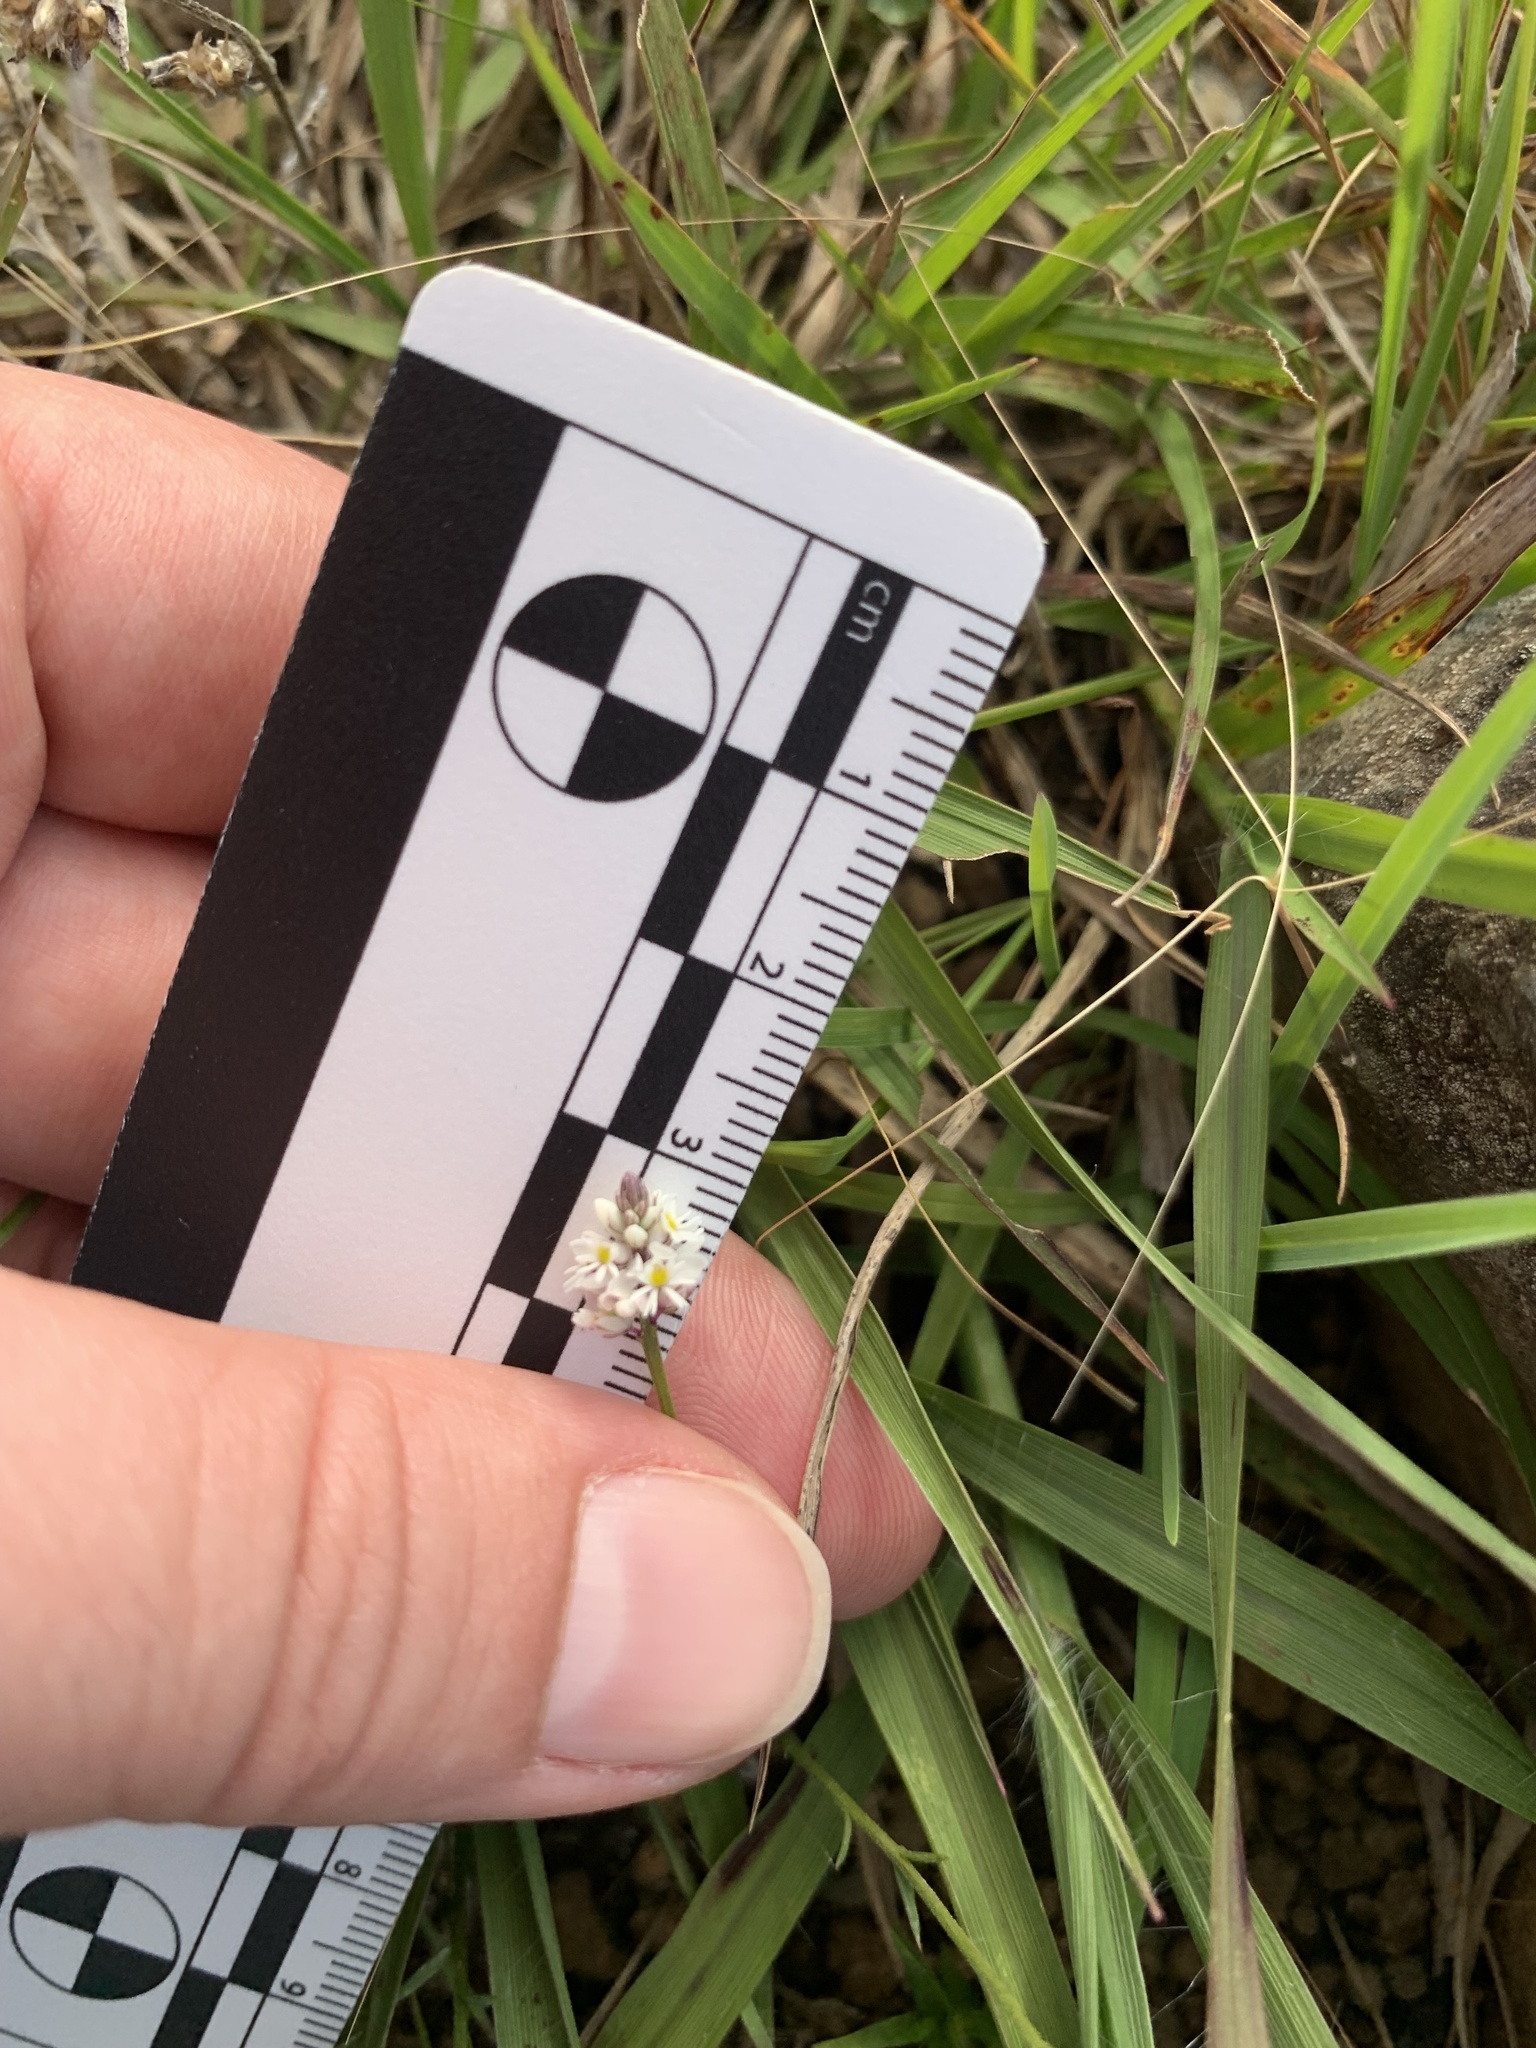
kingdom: Plantae
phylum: Tracheophyta
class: Magnoliopsida
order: Fabales
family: Polygalaceae
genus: Polygala
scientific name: Polygala linoides
